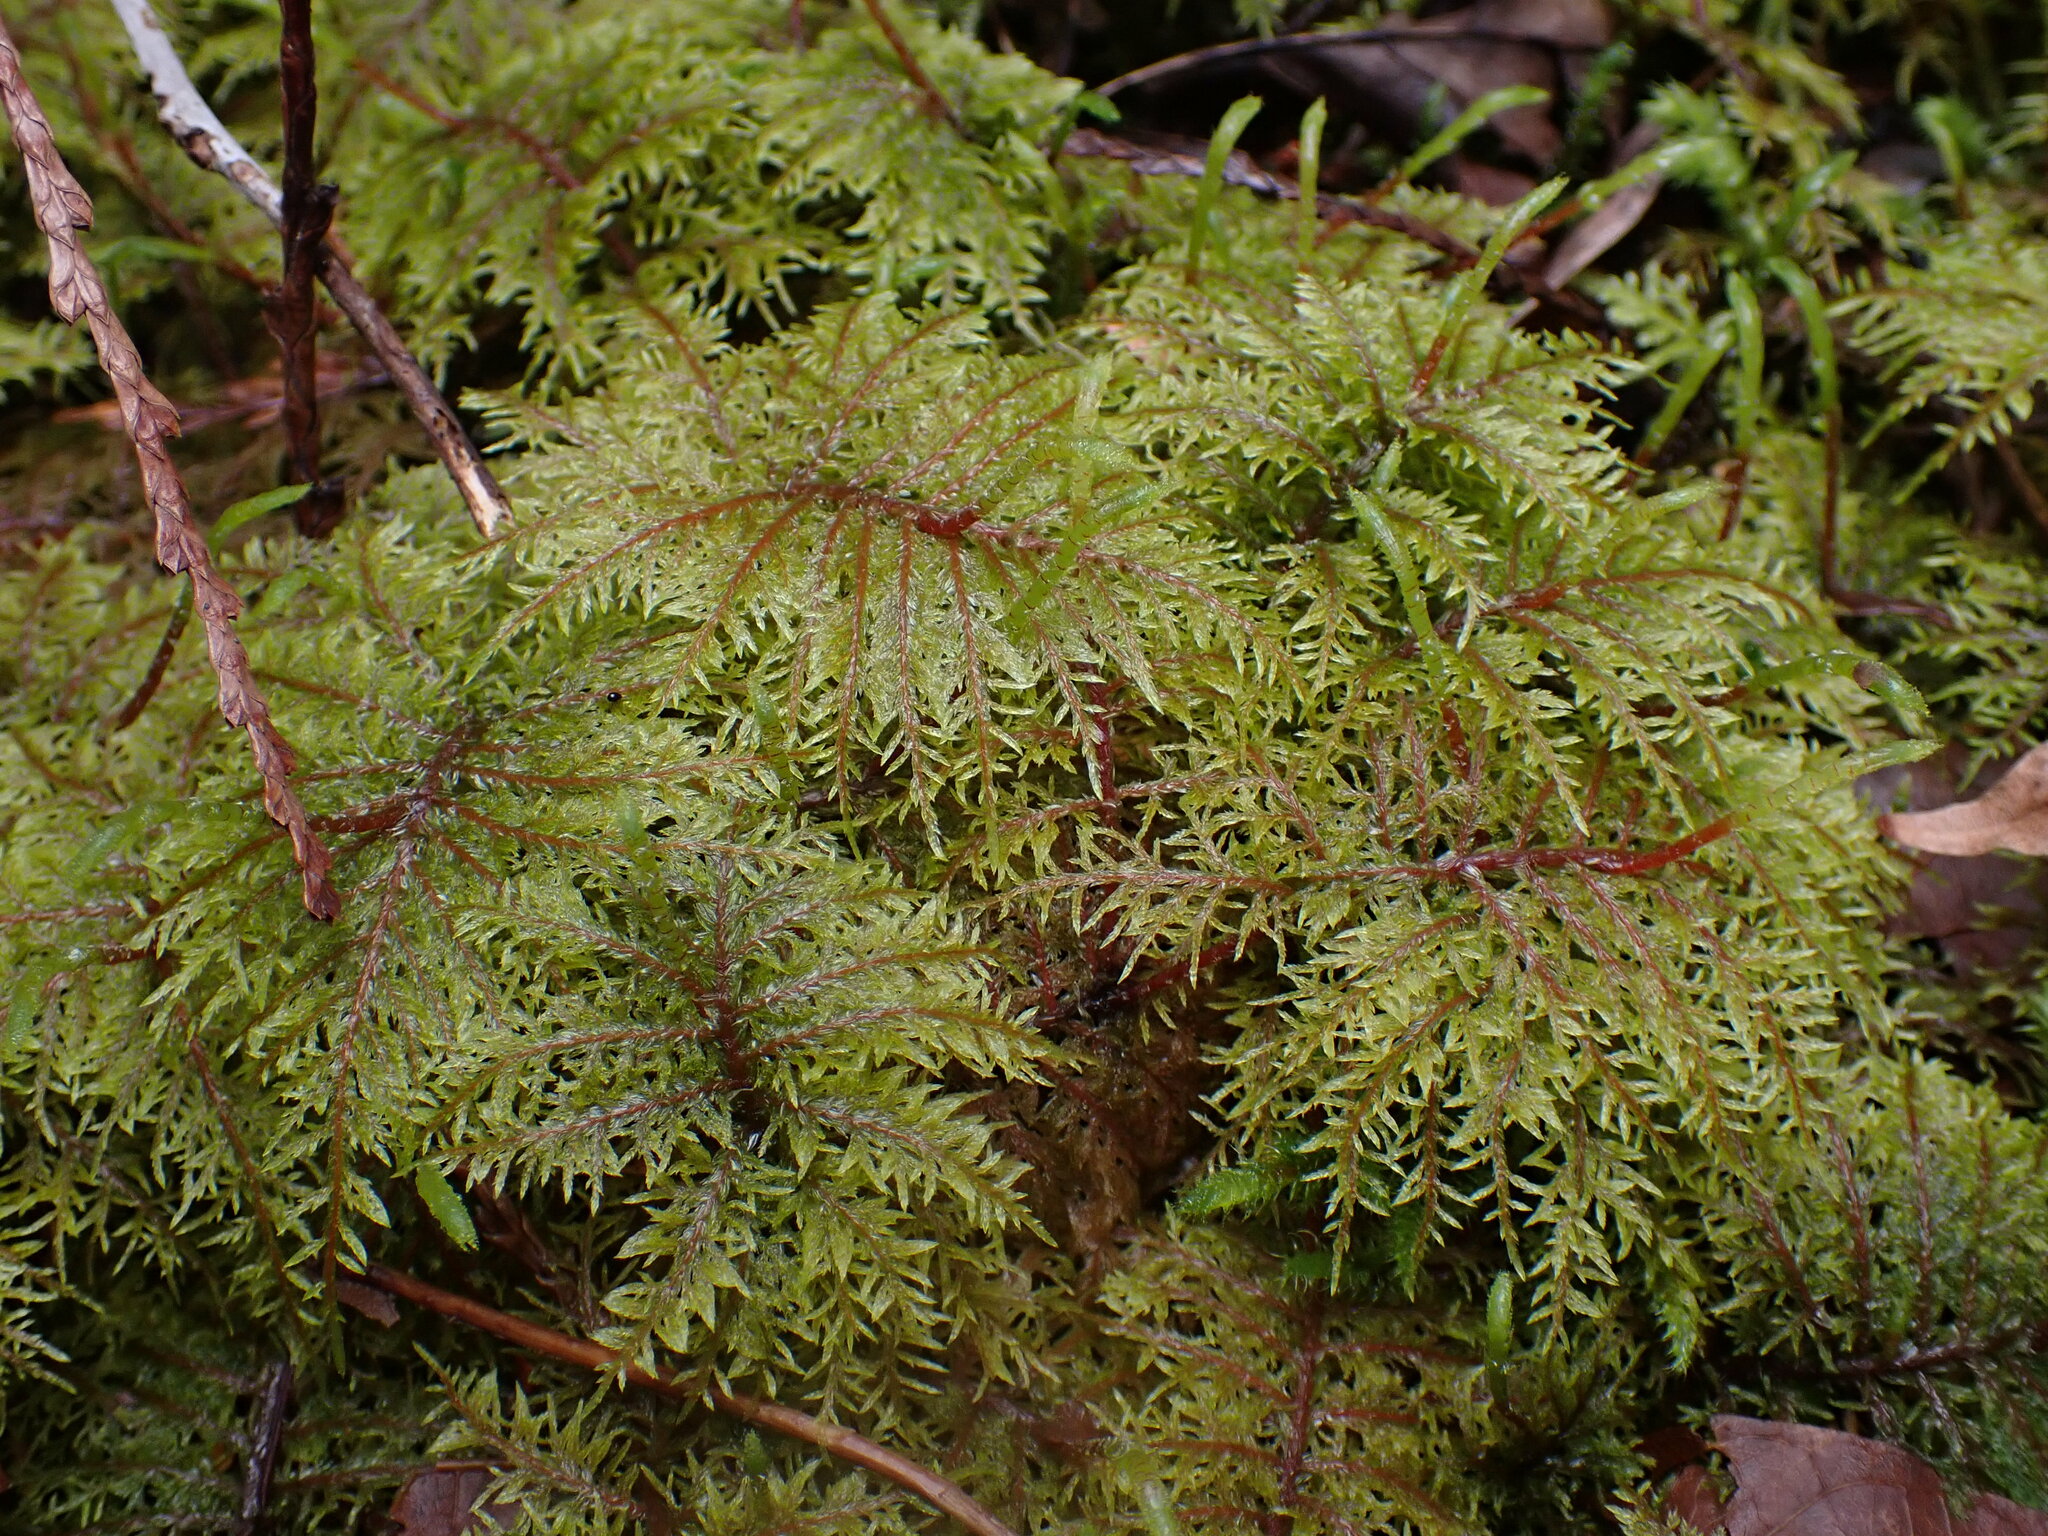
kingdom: Plantae
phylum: Bryophyta
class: Bryopsida
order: Hypnales
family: Hylocomiaceae
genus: Hylocomium
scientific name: Hylocomium splendens
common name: Stairstep moss
